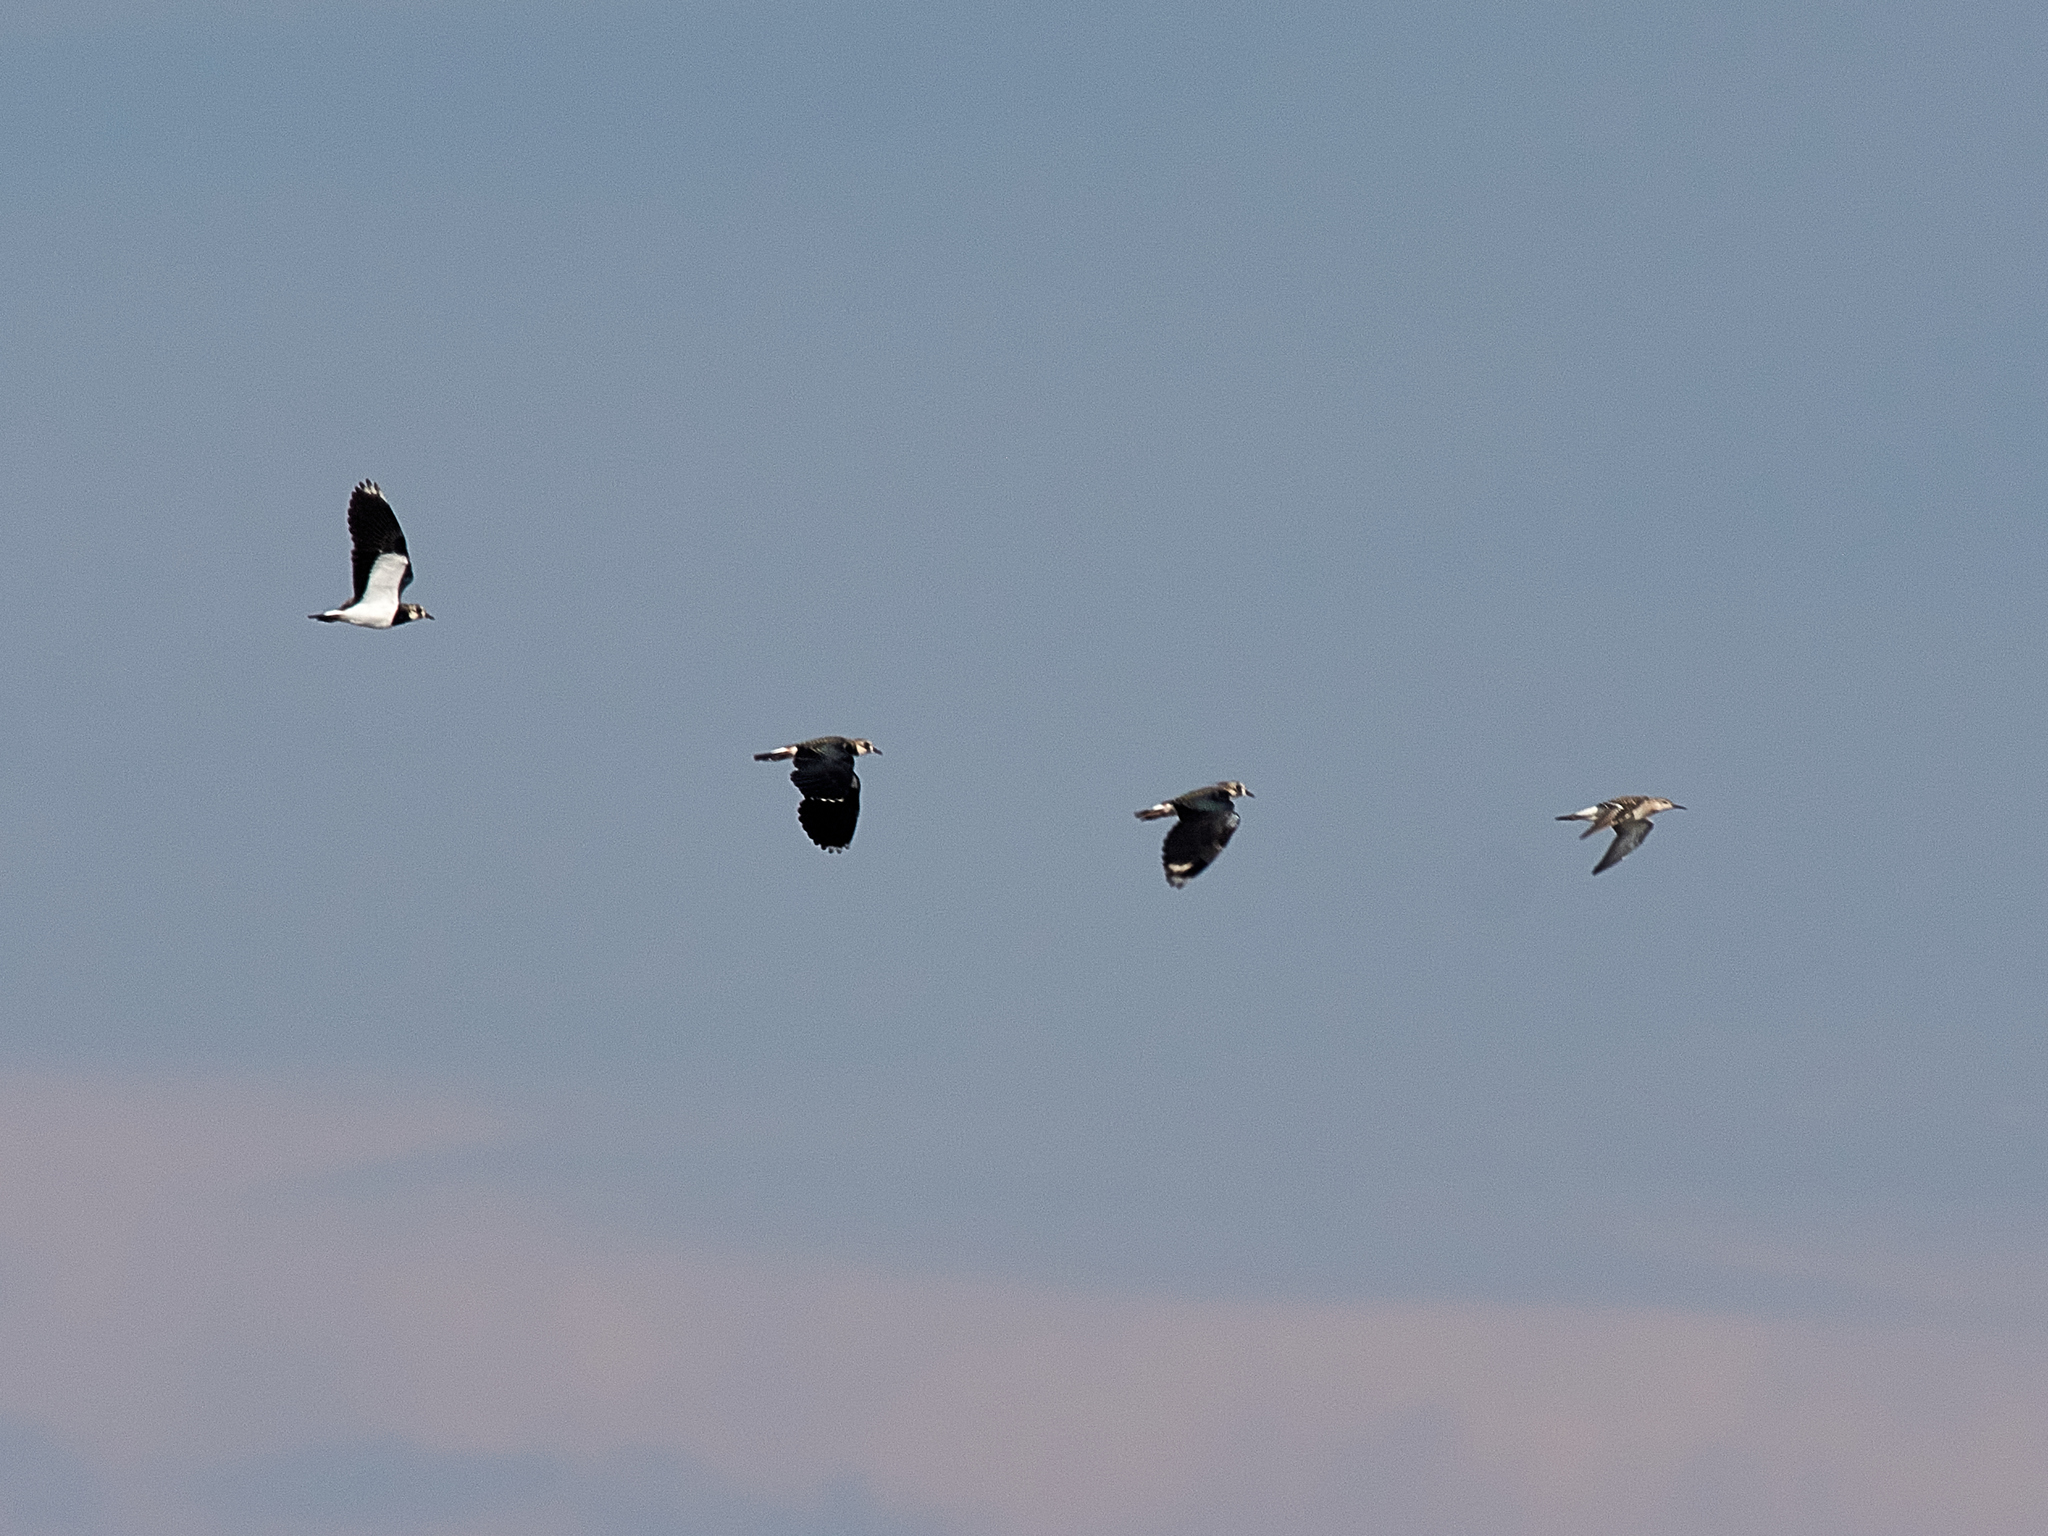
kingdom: Animalia
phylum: Chordata
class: Aves
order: Charadriiformes
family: Charadriidae
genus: Vanellus
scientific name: Vanellus vanellus
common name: Northern lapwing
